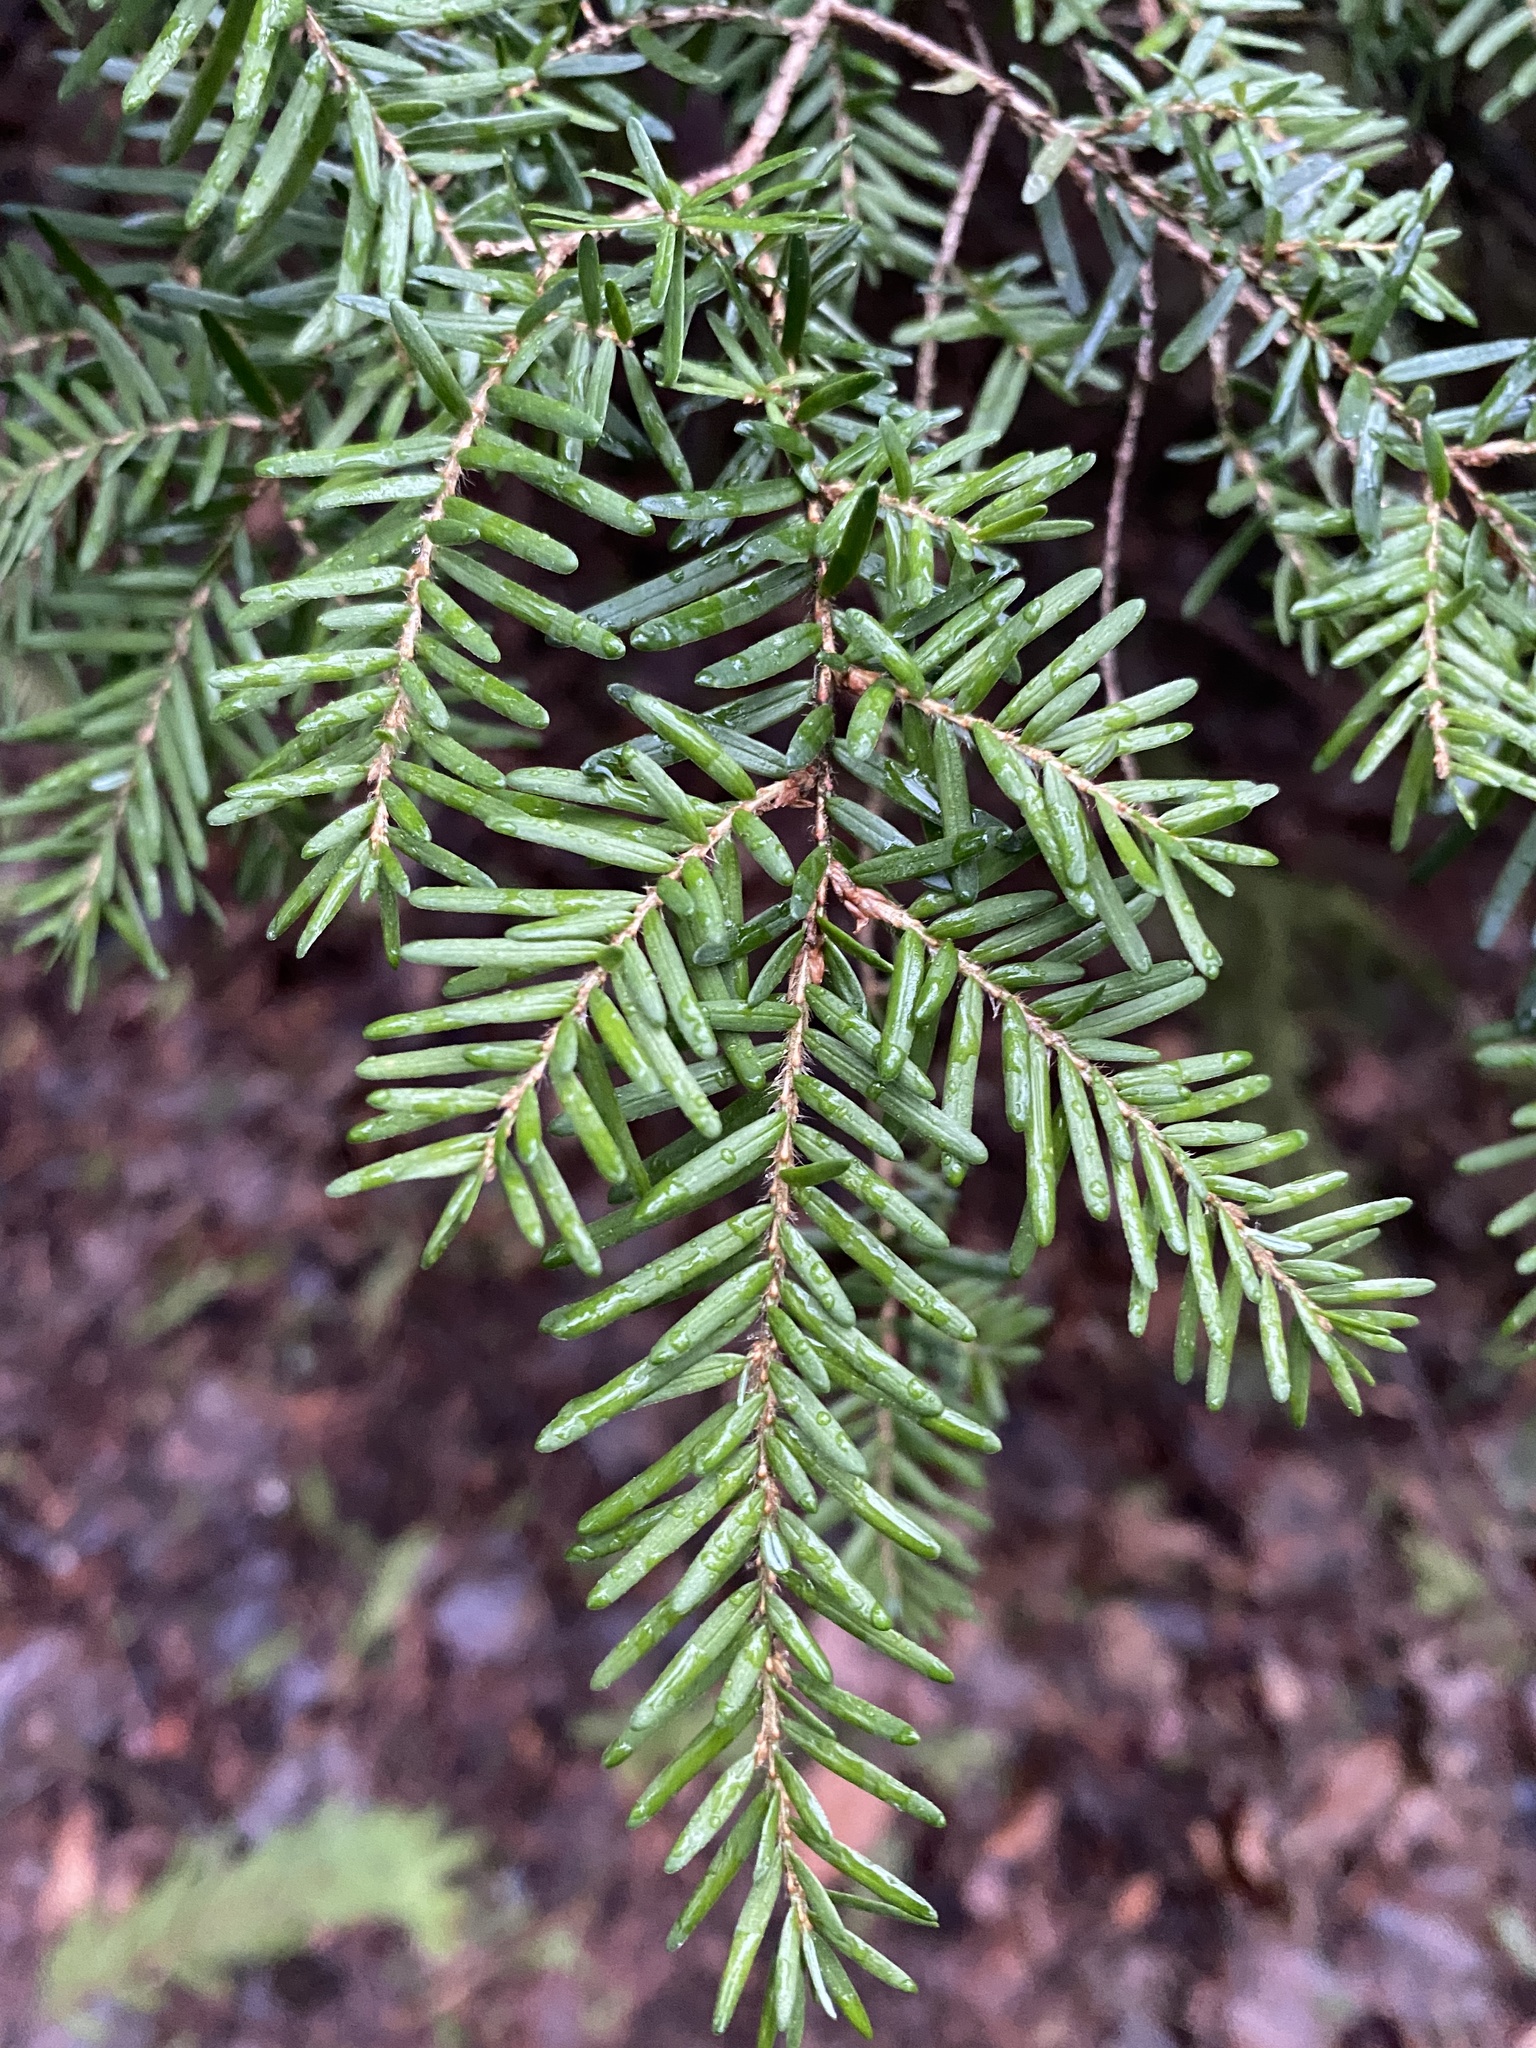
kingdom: Plantae
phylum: Tracheophyta
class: Pinopsida
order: Pinales
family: Pinaceae
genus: Tsuga
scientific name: Tsuga heterophylla
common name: Western hemlock
